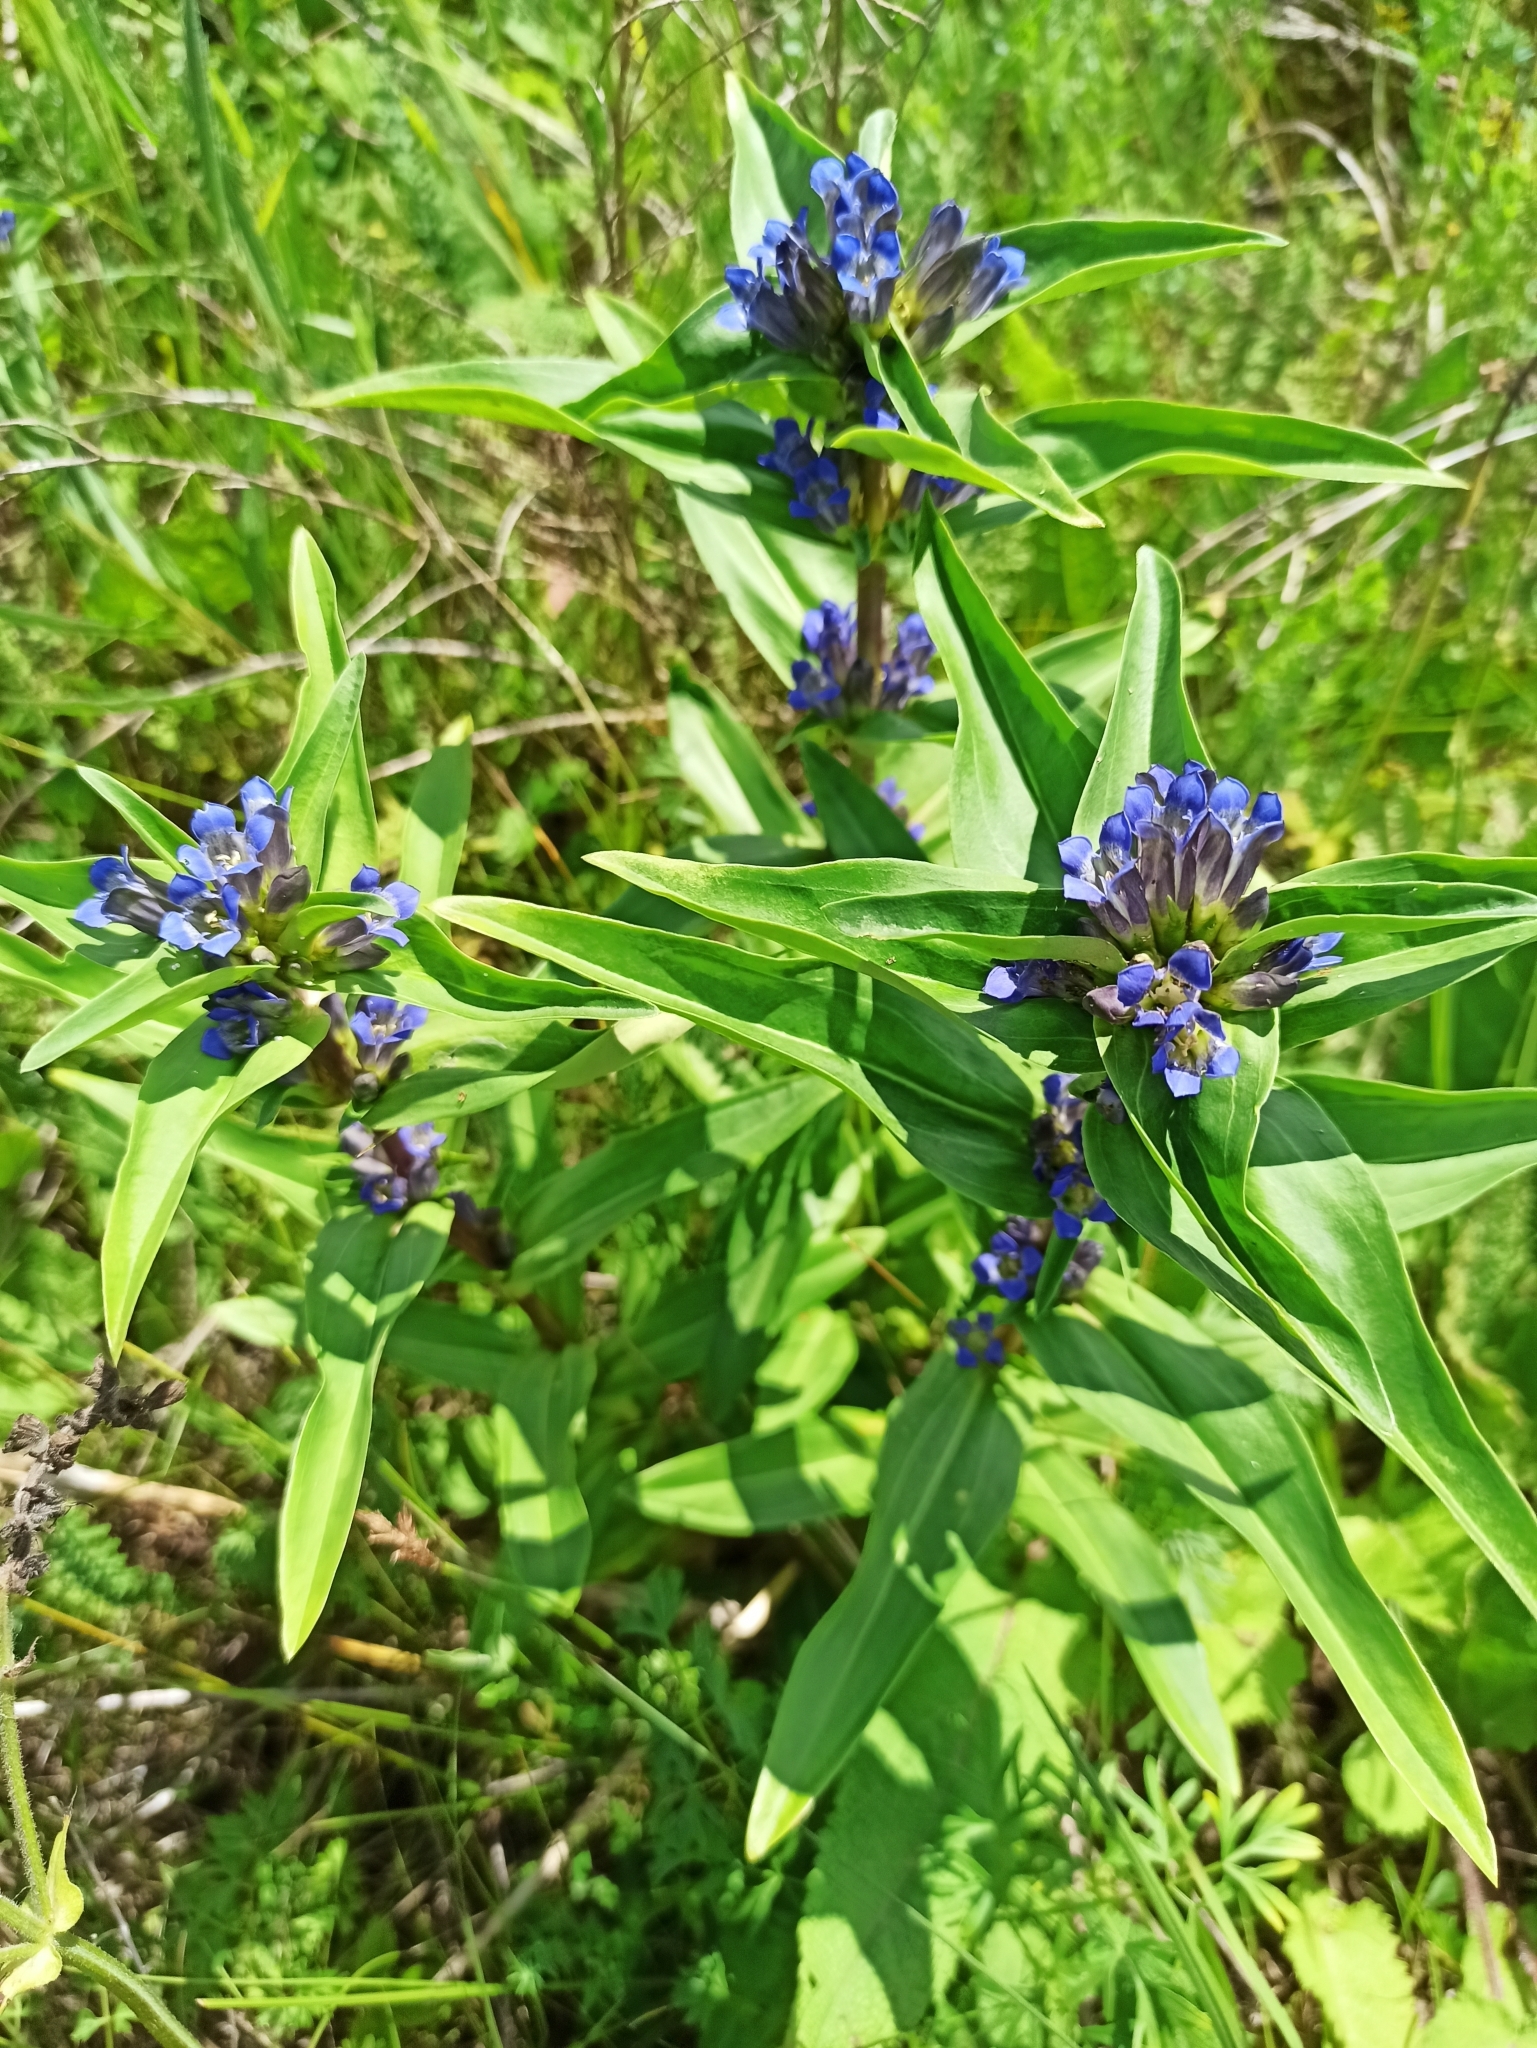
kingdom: Plantae
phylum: Tracheophyta
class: Magnoliopsida
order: Gentianales
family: Gentianaceae
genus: Gentiana
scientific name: Gentiana cruciata
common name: Cross gentian
